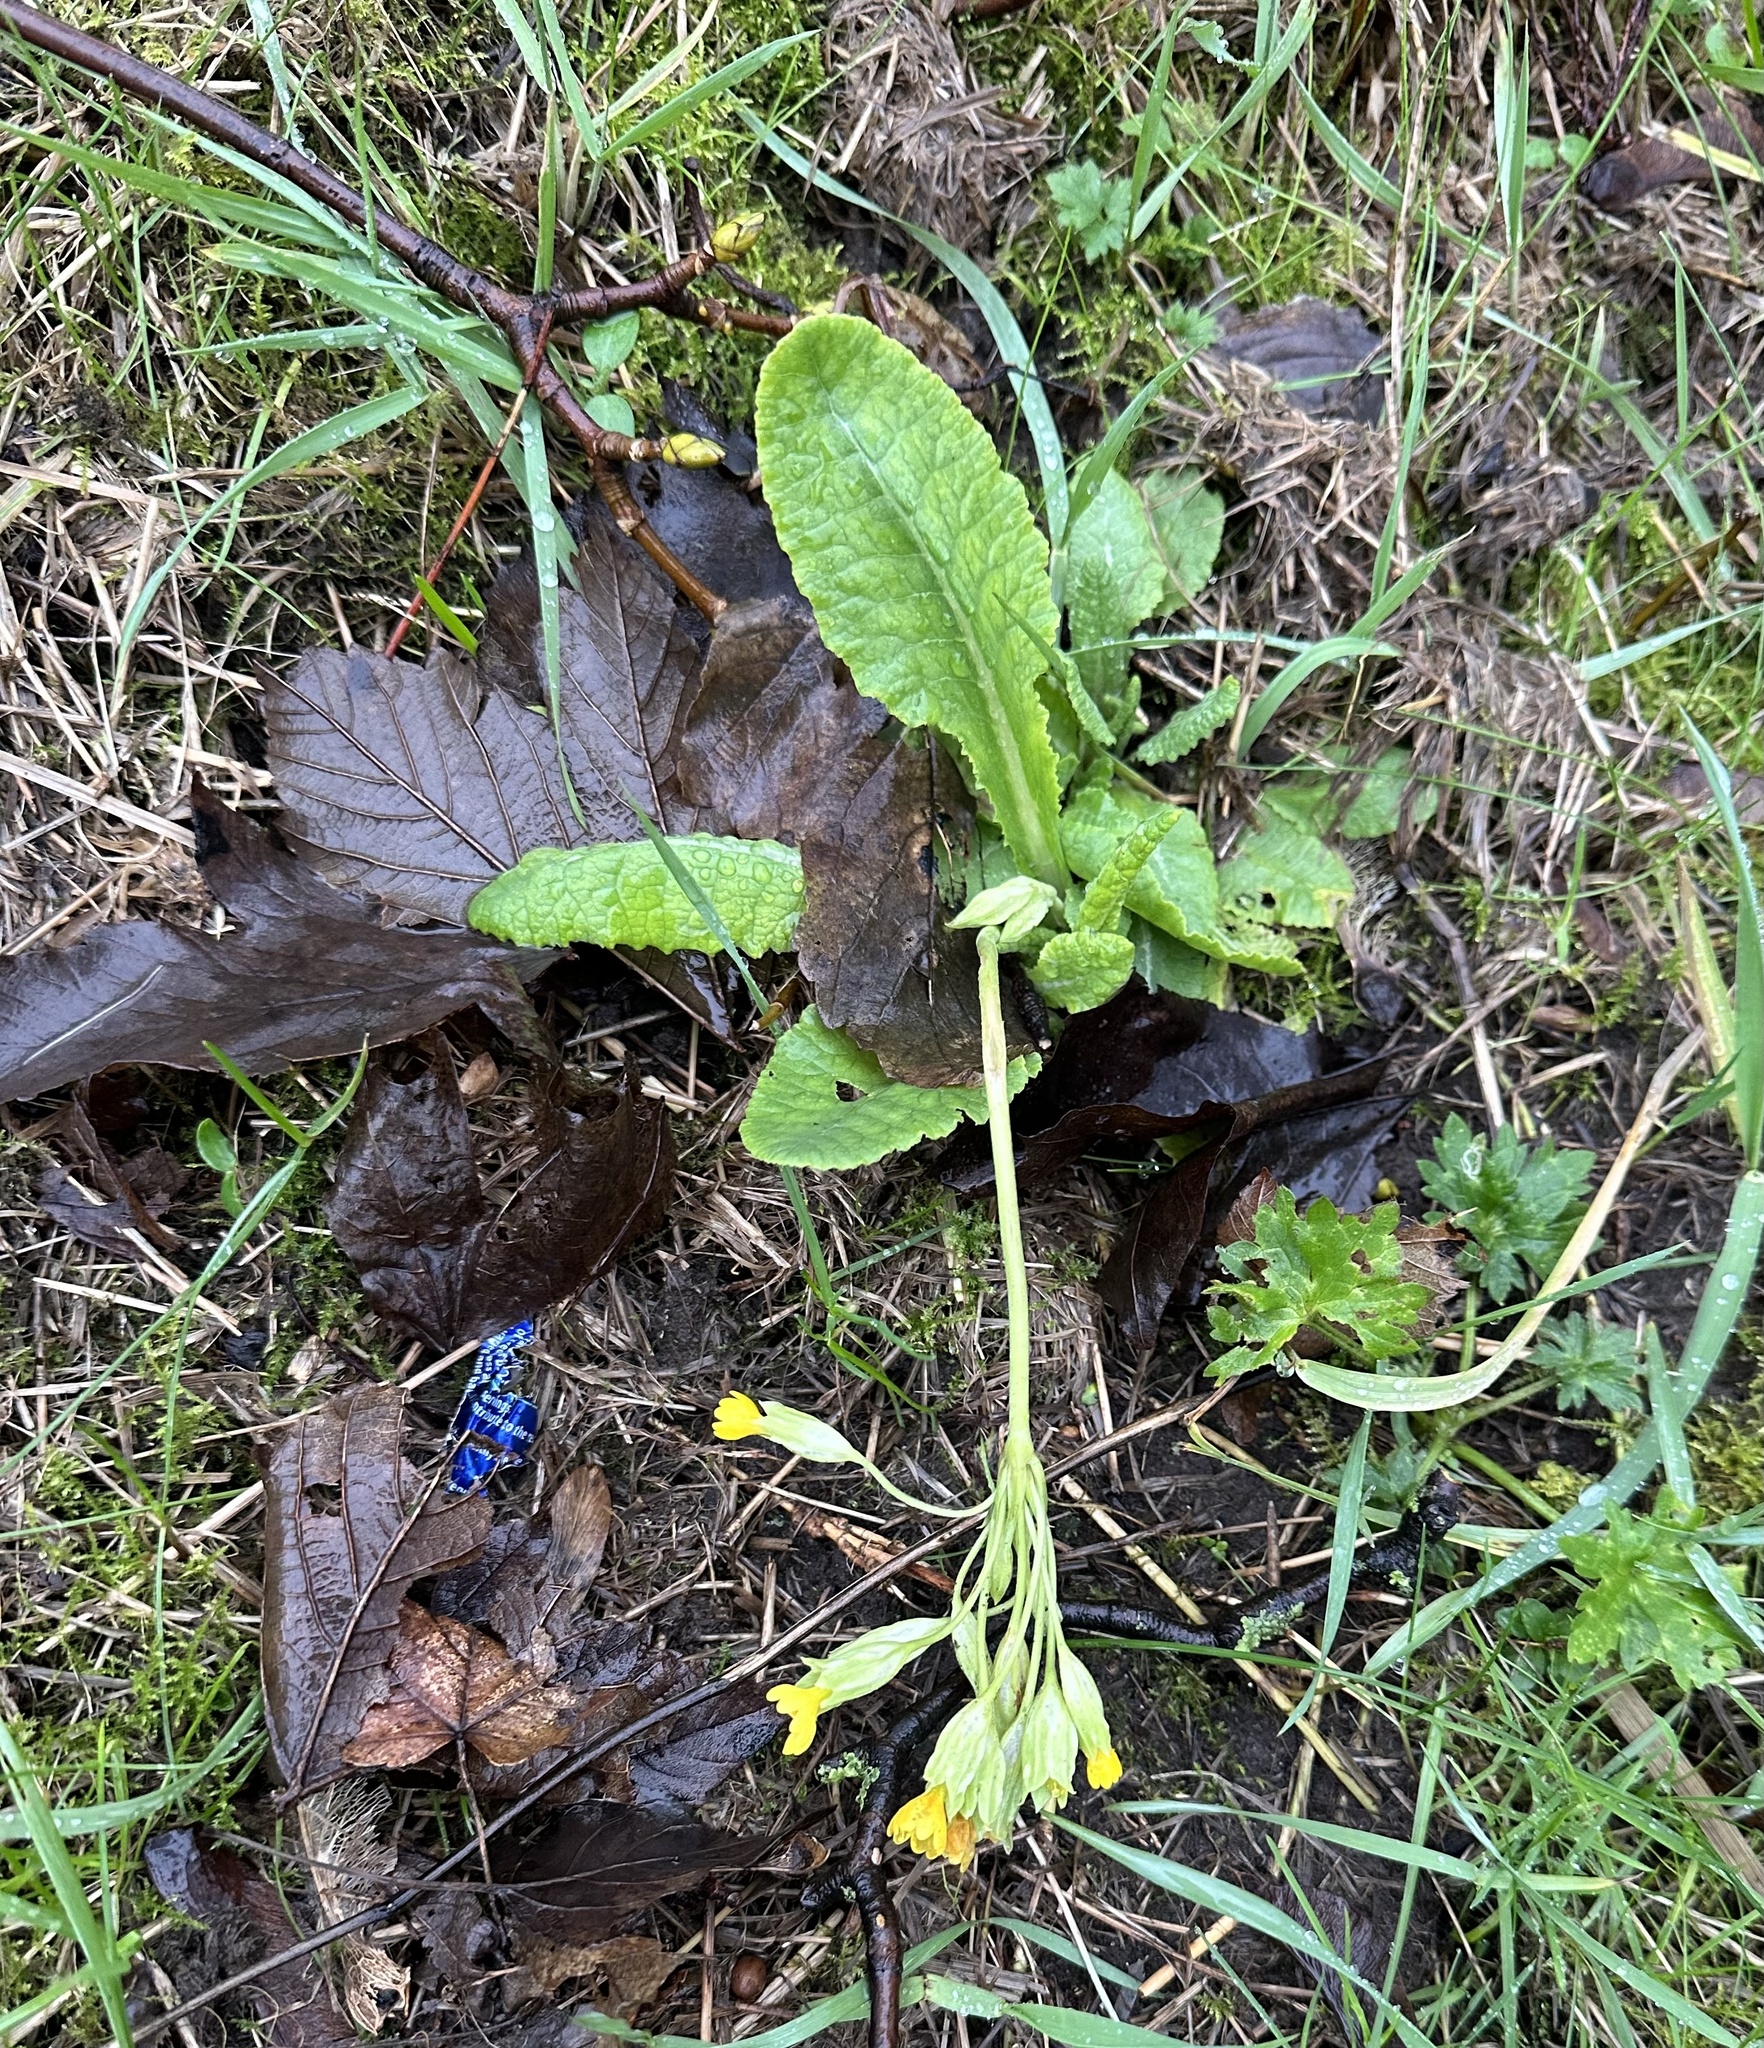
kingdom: Plantae
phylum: Tracheophyta
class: Magnoliopsida
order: Ericales
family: Primulaceae
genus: Primula
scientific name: Primula veris
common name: Cowslip
